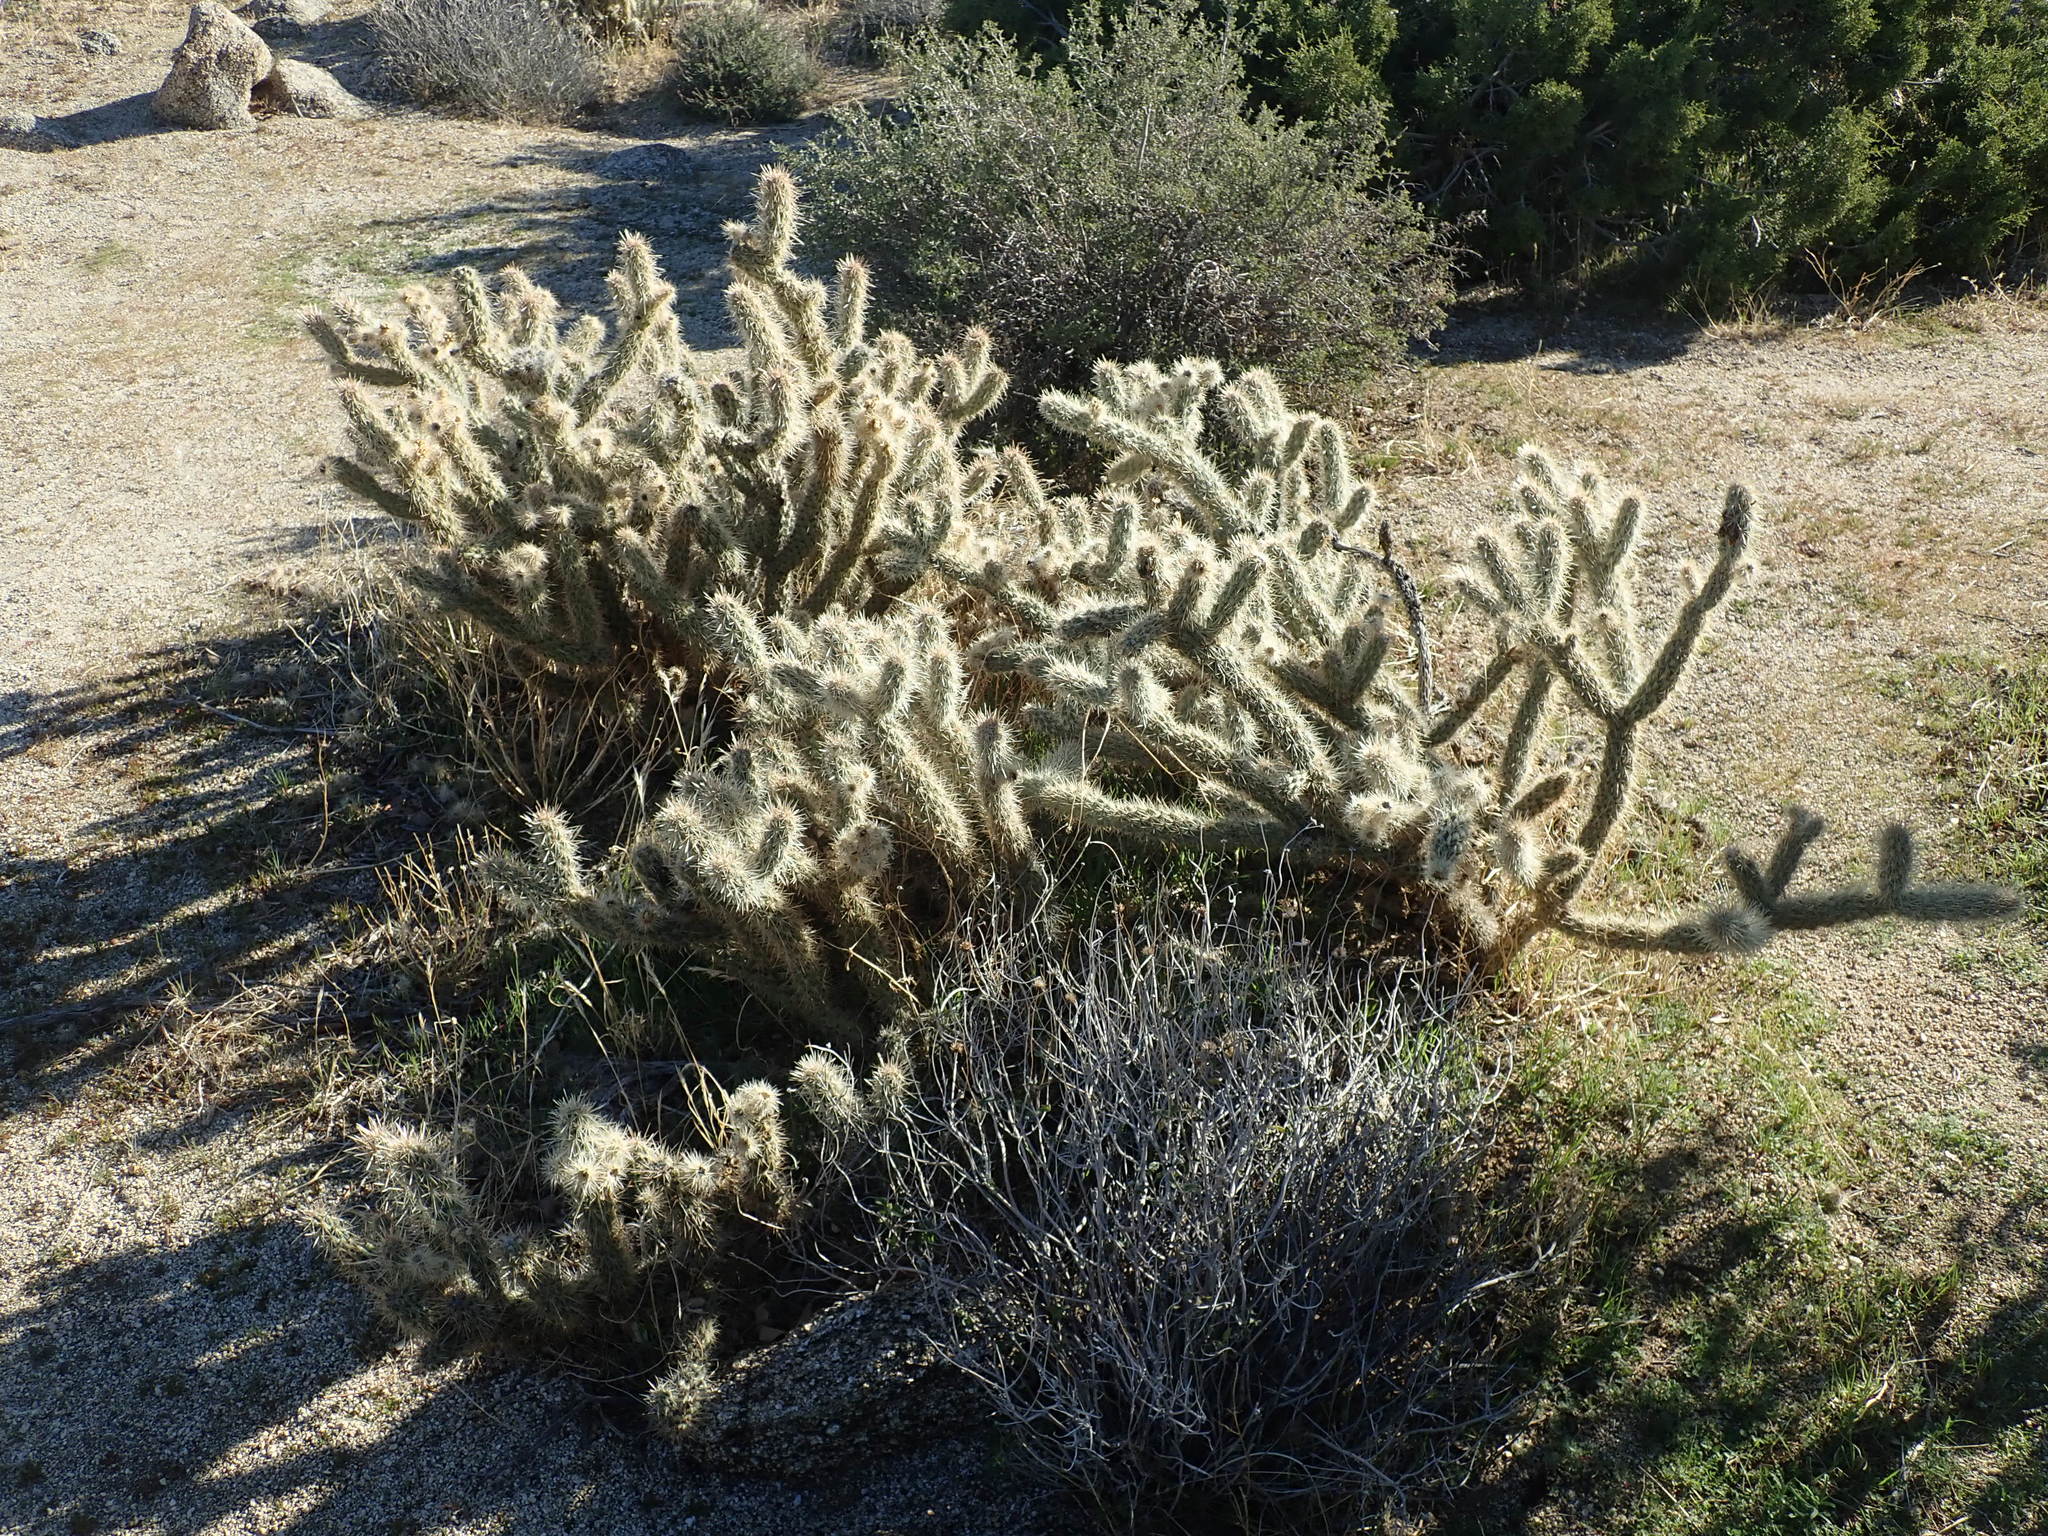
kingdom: Plantae
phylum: Tracheophyta
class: Magnoliopsida
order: Caryophyllales
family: Cactaceae
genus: Cylindropuntia
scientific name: Cylindropuntia ganderi
